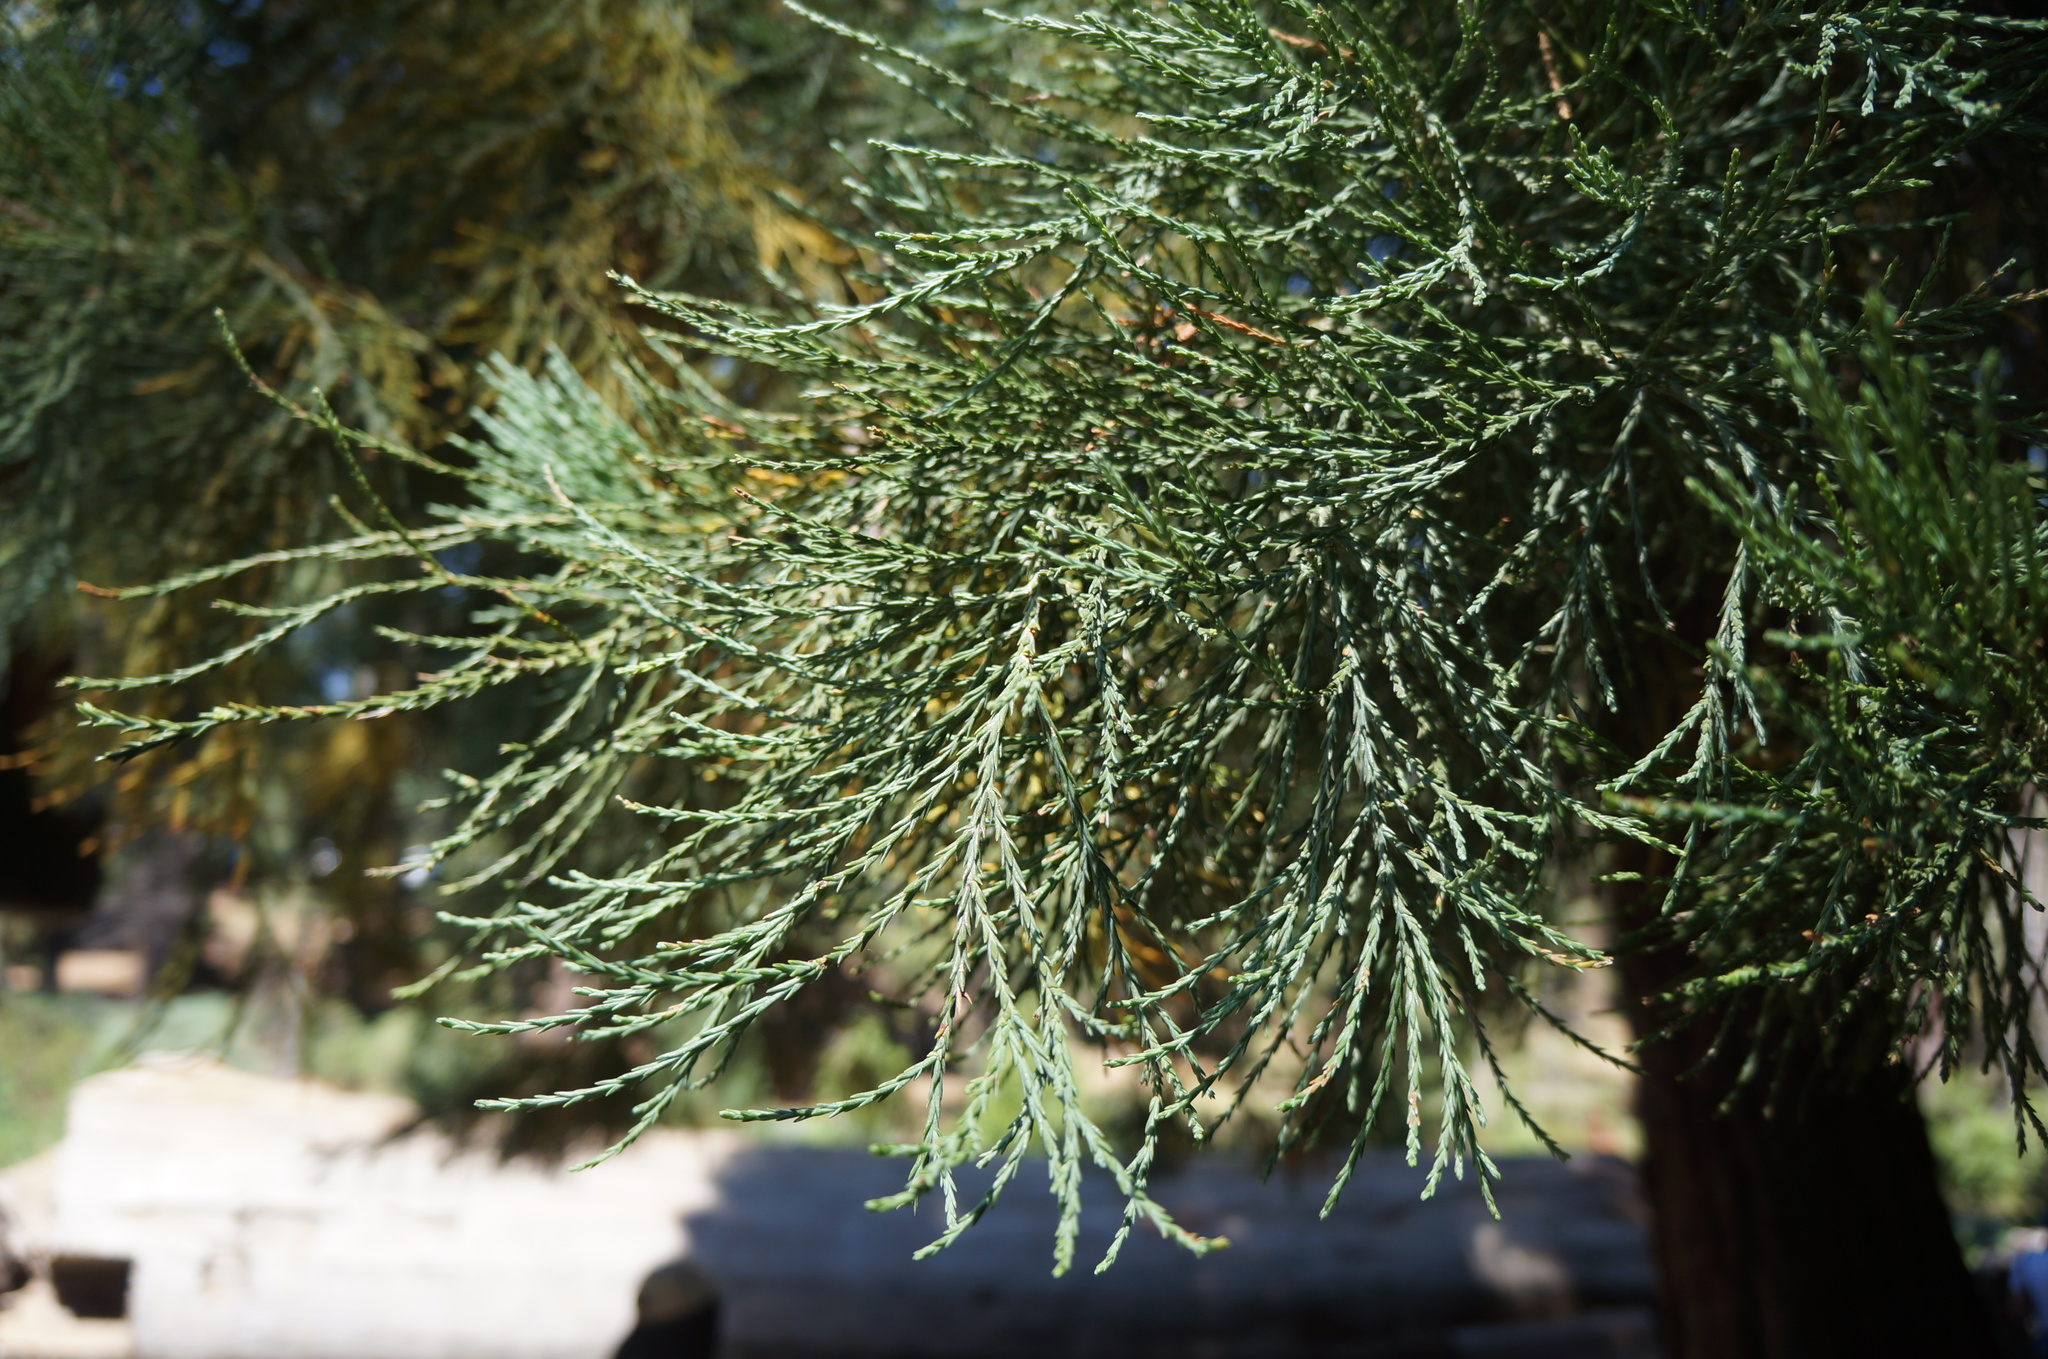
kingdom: Plantae
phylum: Tracheophyta
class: Pinopsida
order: Pinales
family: Cupressaceae
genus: Sequoiadendron
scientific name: Sequoiadendron giganteum
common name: Wellingtonia
